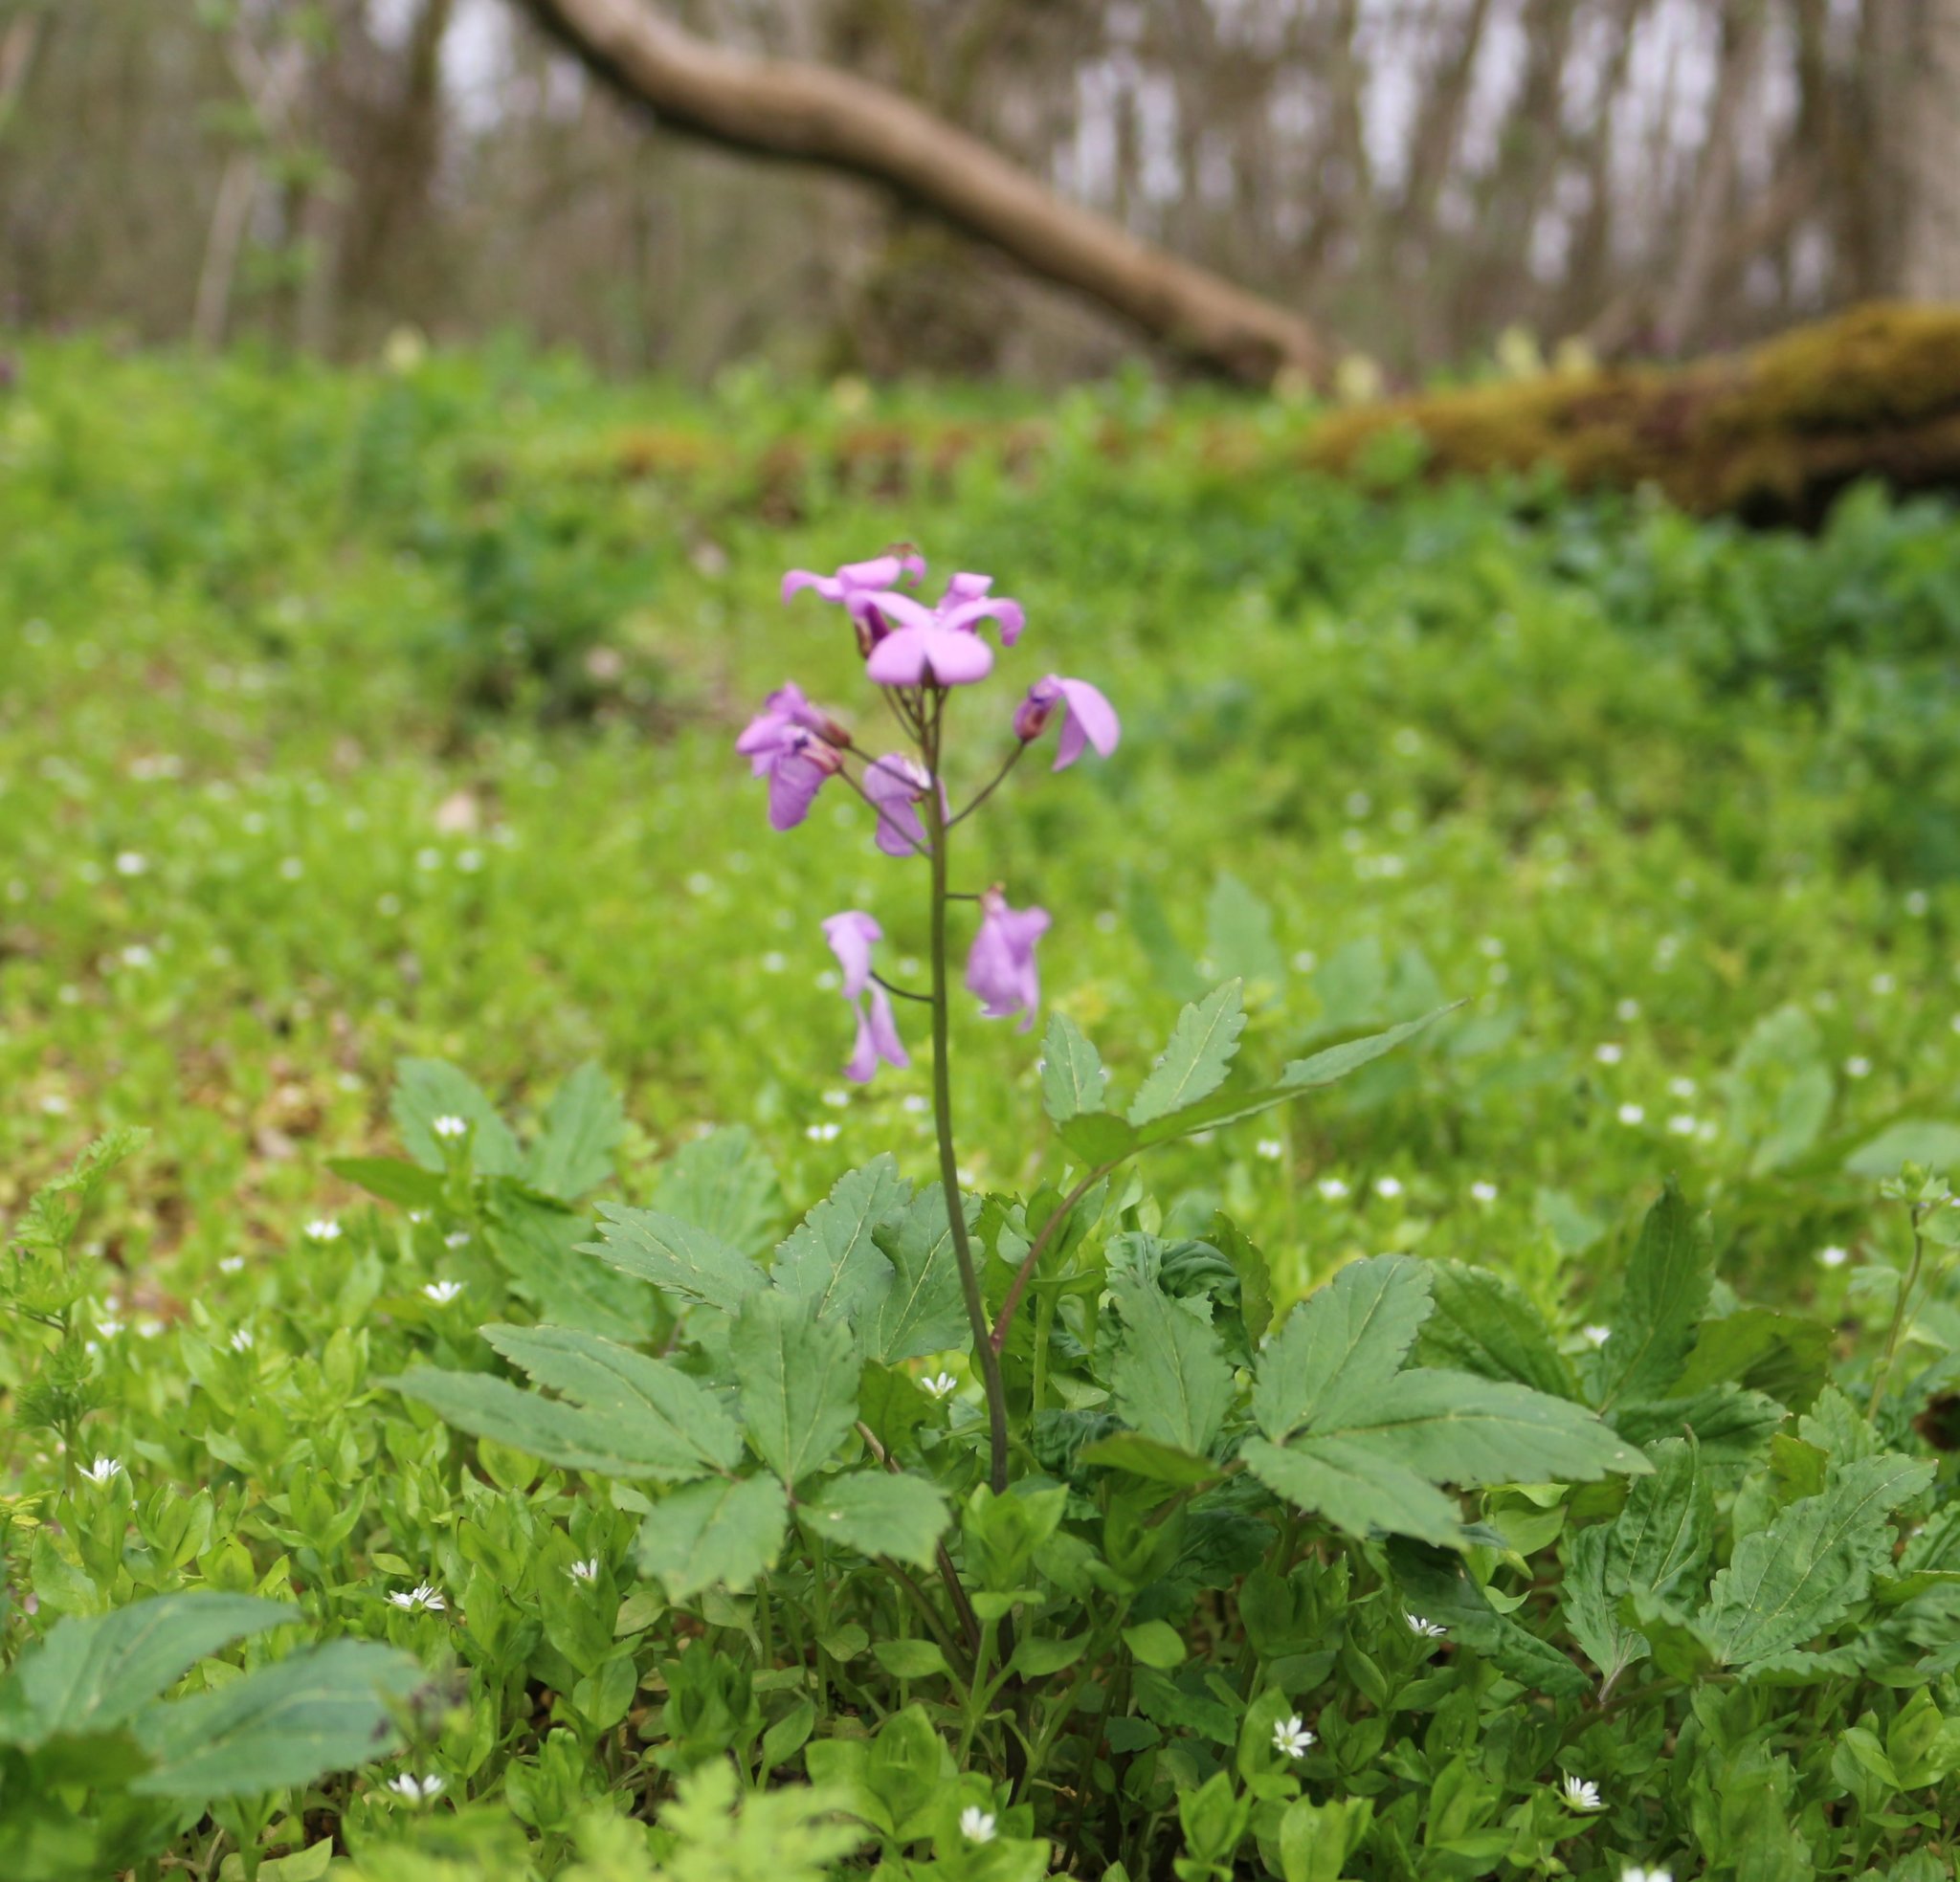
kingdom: Plantae
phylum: Tracheophyta
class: Magnoliopsida
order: Brassicales
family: Brassicaceae
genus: Cardamine
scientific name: Cardamine quinquefolia
